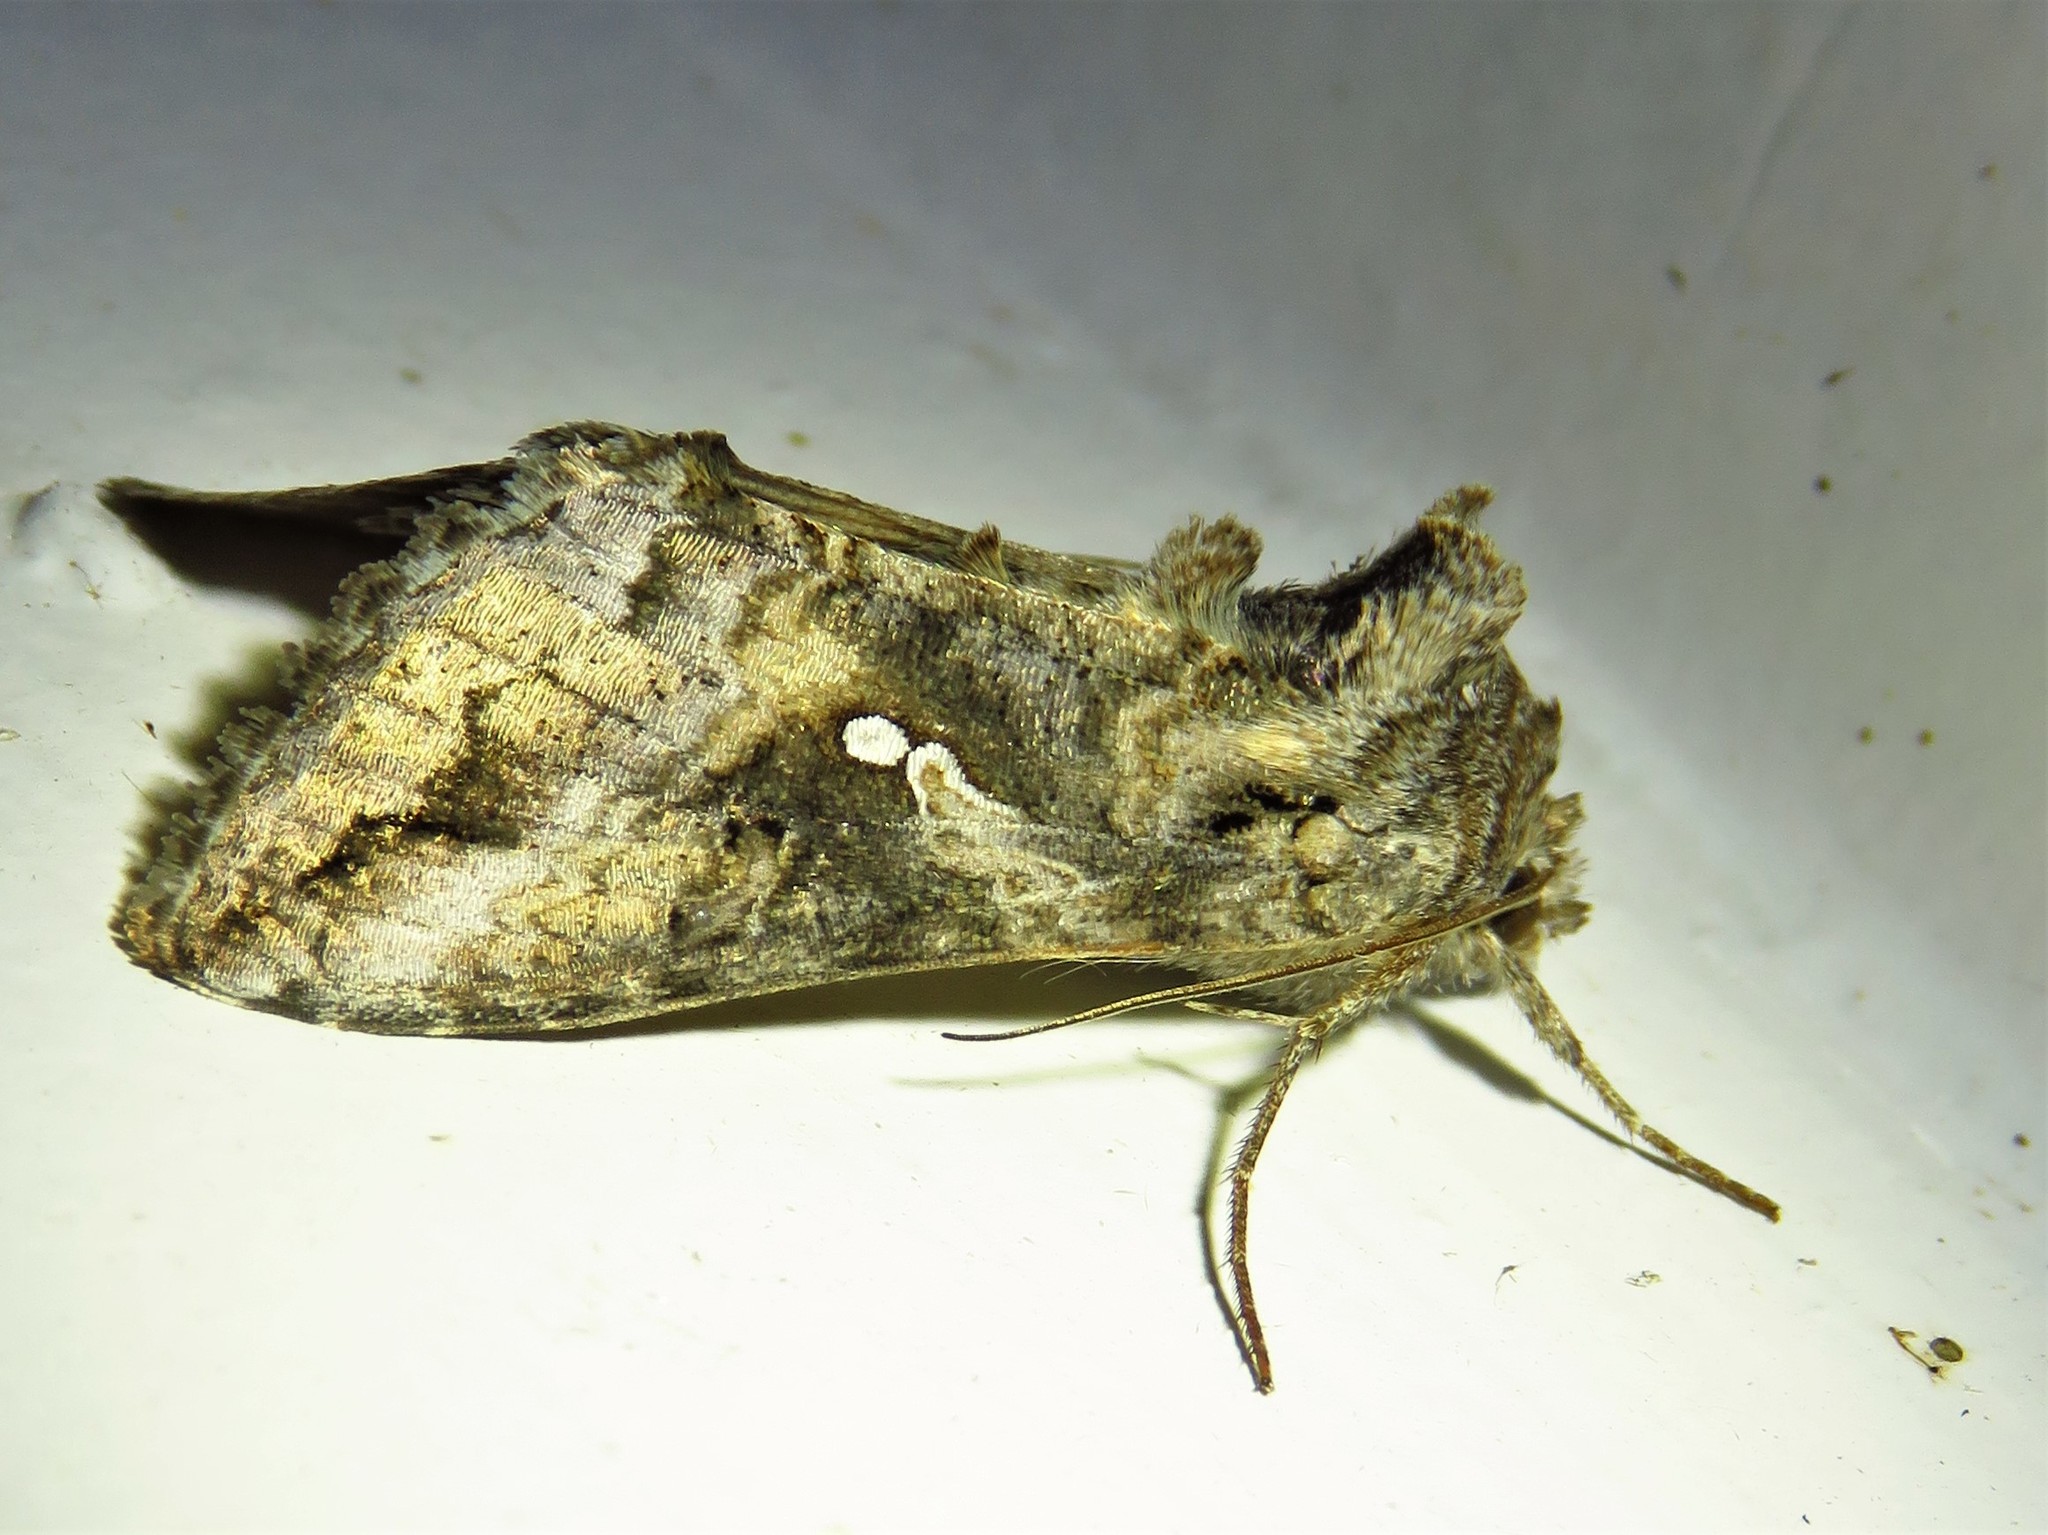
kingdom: Animalia
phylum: Arthropoda
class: Insecta
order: Lepidoptera
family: Noctuidae
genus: Rachiplusia
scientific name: Rachiplusia ou
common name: Gray looper moth
